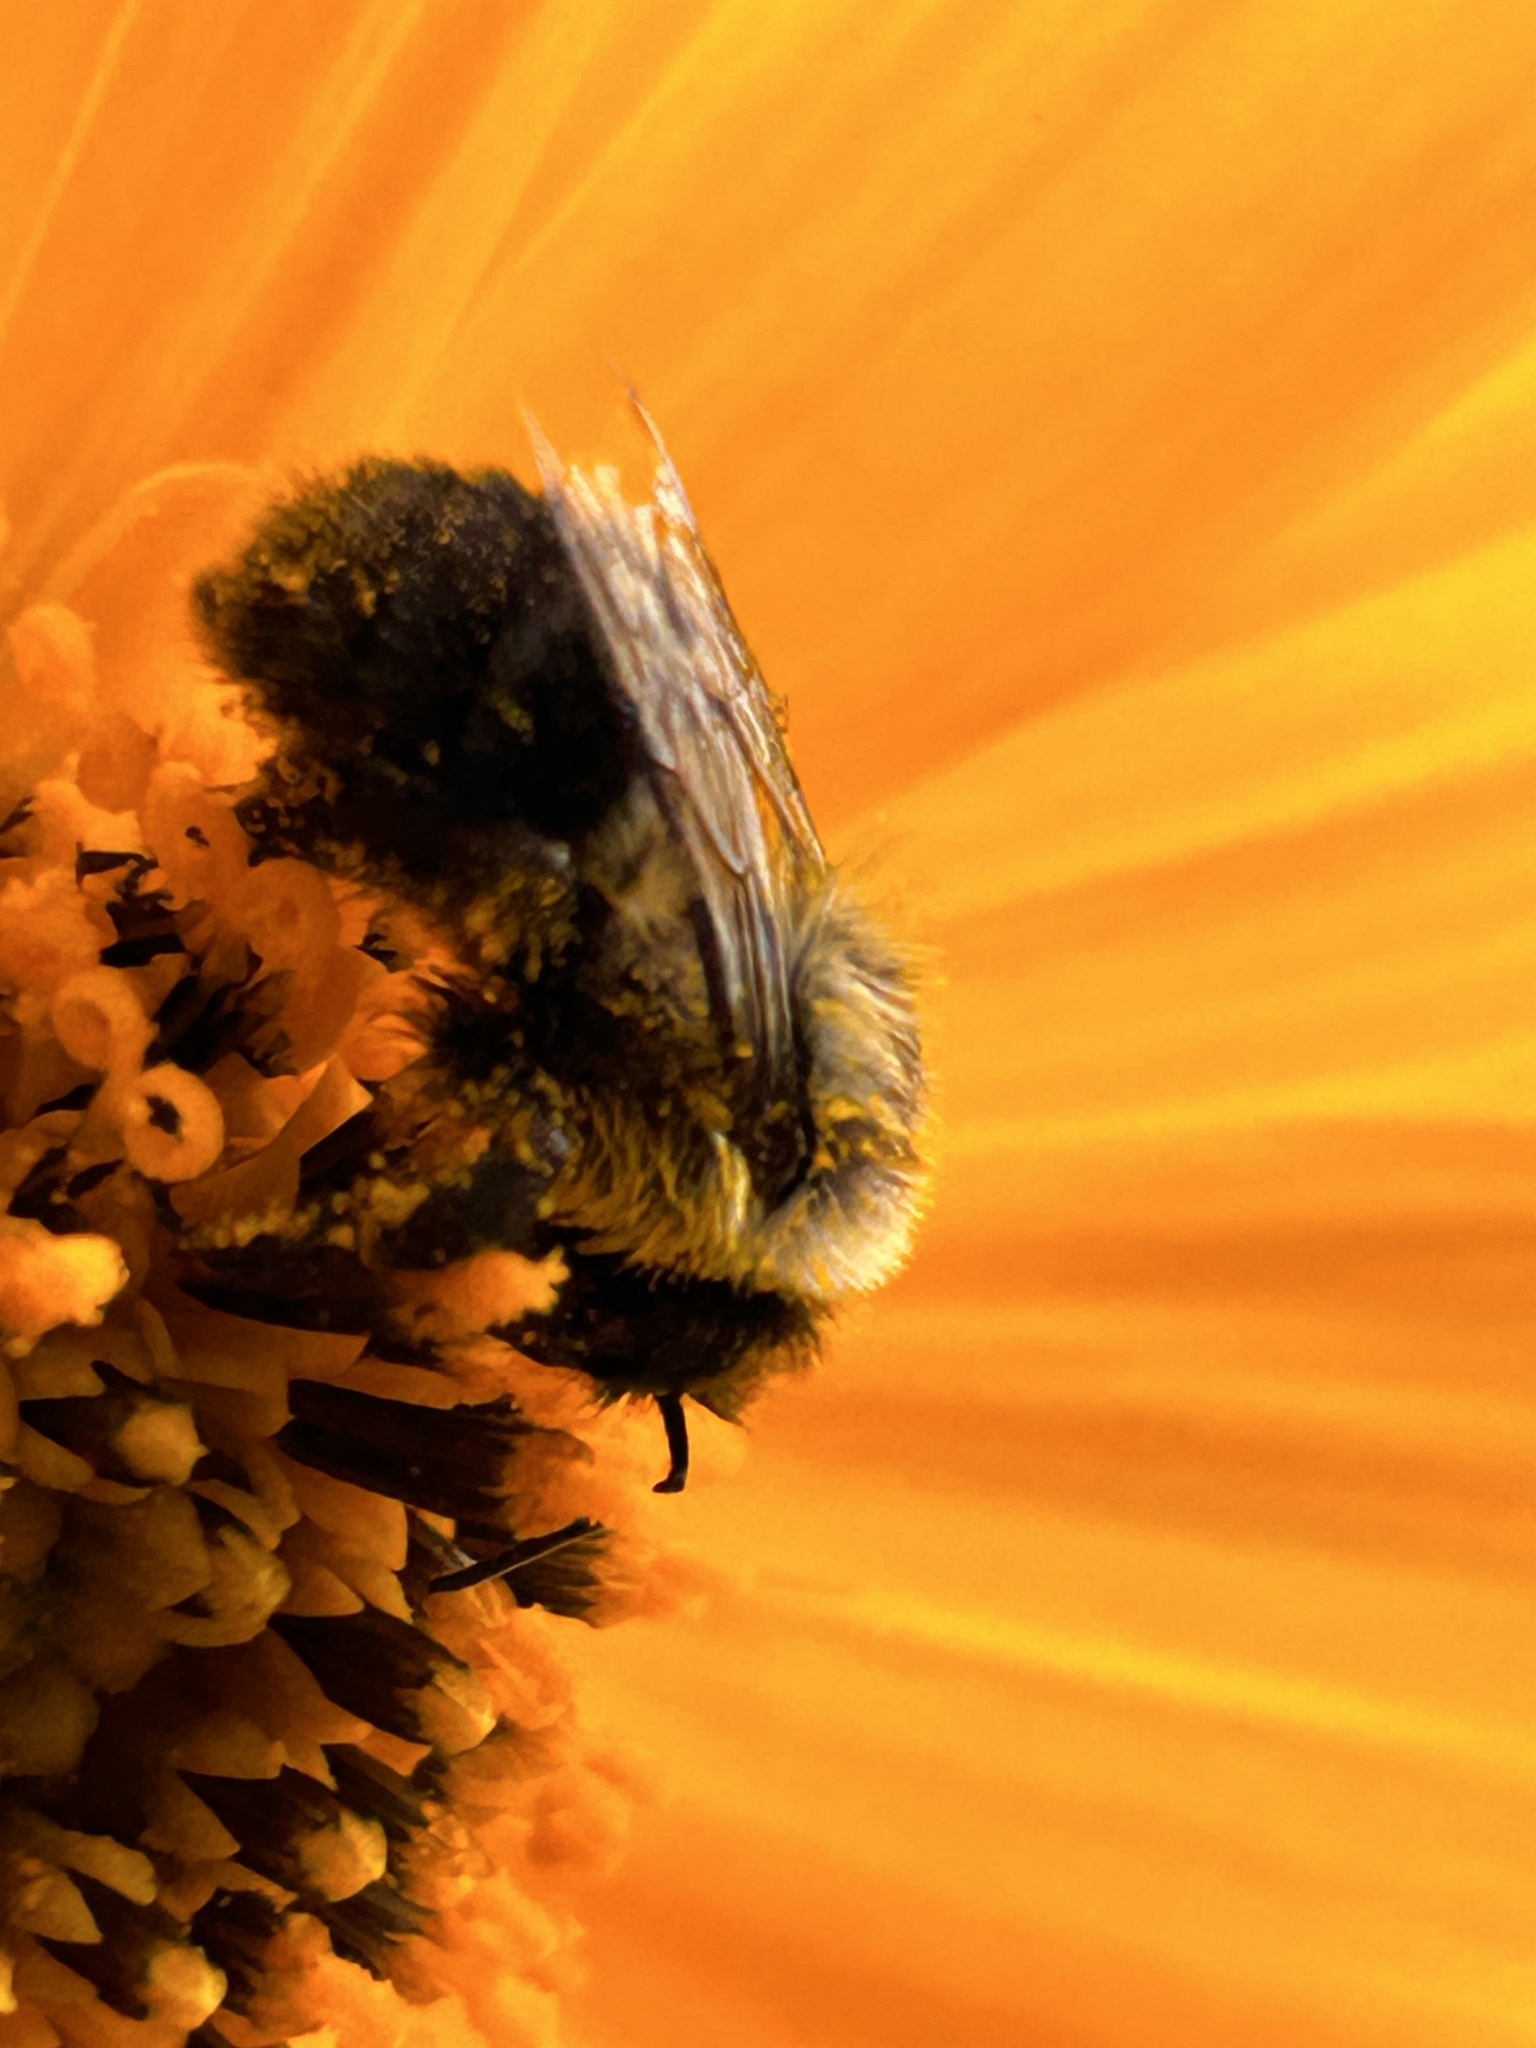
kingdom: Animalia
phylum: Arthropoda
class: Insecta
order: Hymenoptera
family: Apidae
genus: Bombus
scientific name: Bombus impatiens
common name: Common eastern bumble bee
